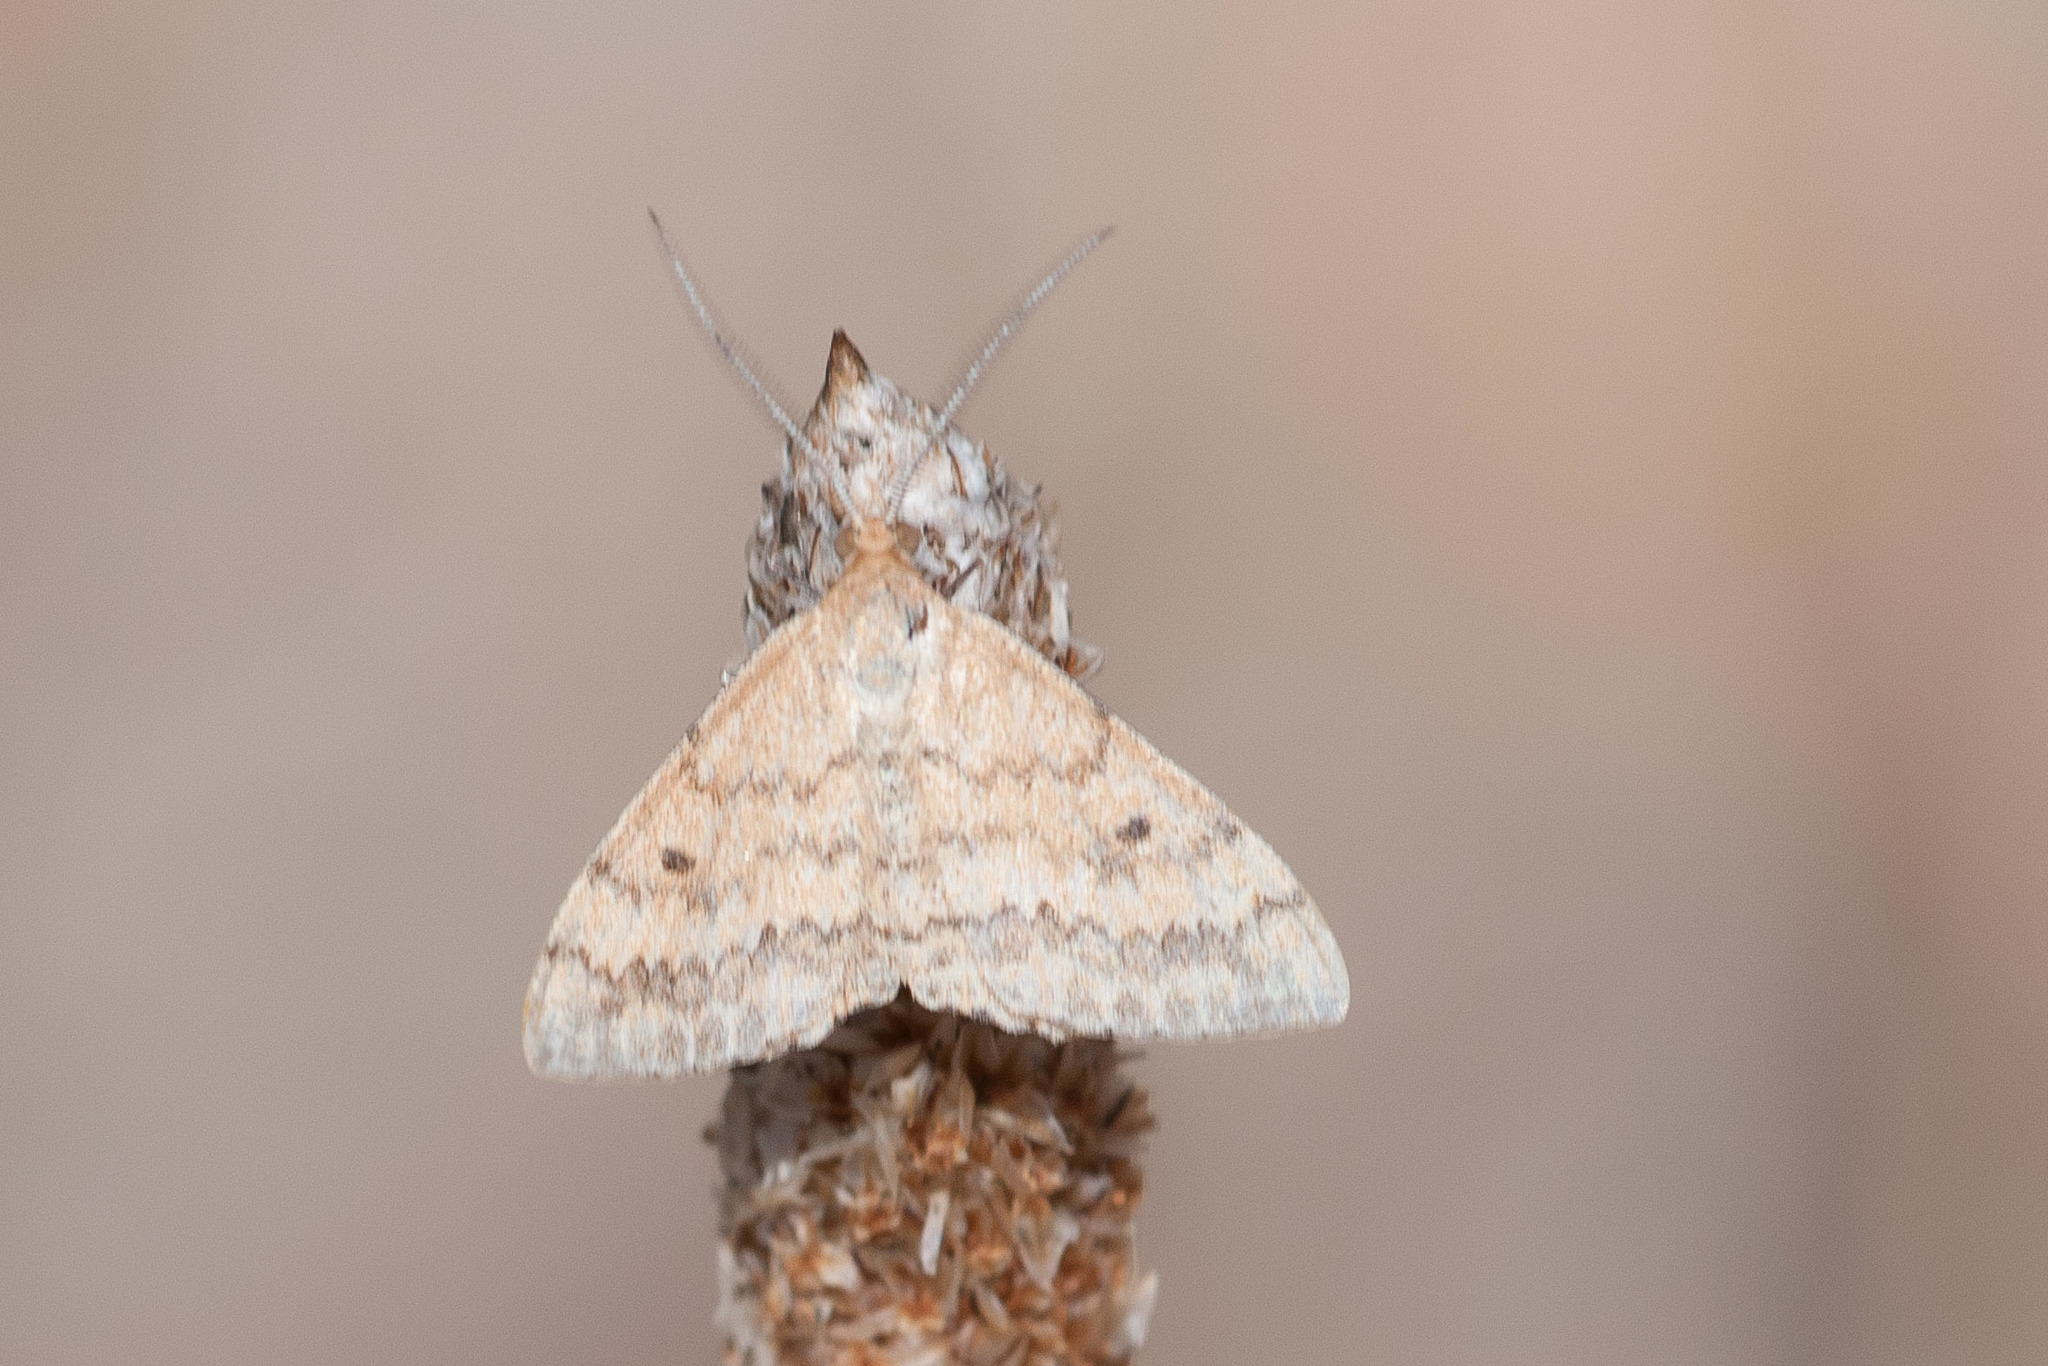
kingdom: Animalia
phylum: Arthropoda
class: Insecta
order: Lepidoptera
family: Geometridae
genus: Scopula
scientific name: Scopula rubraria
